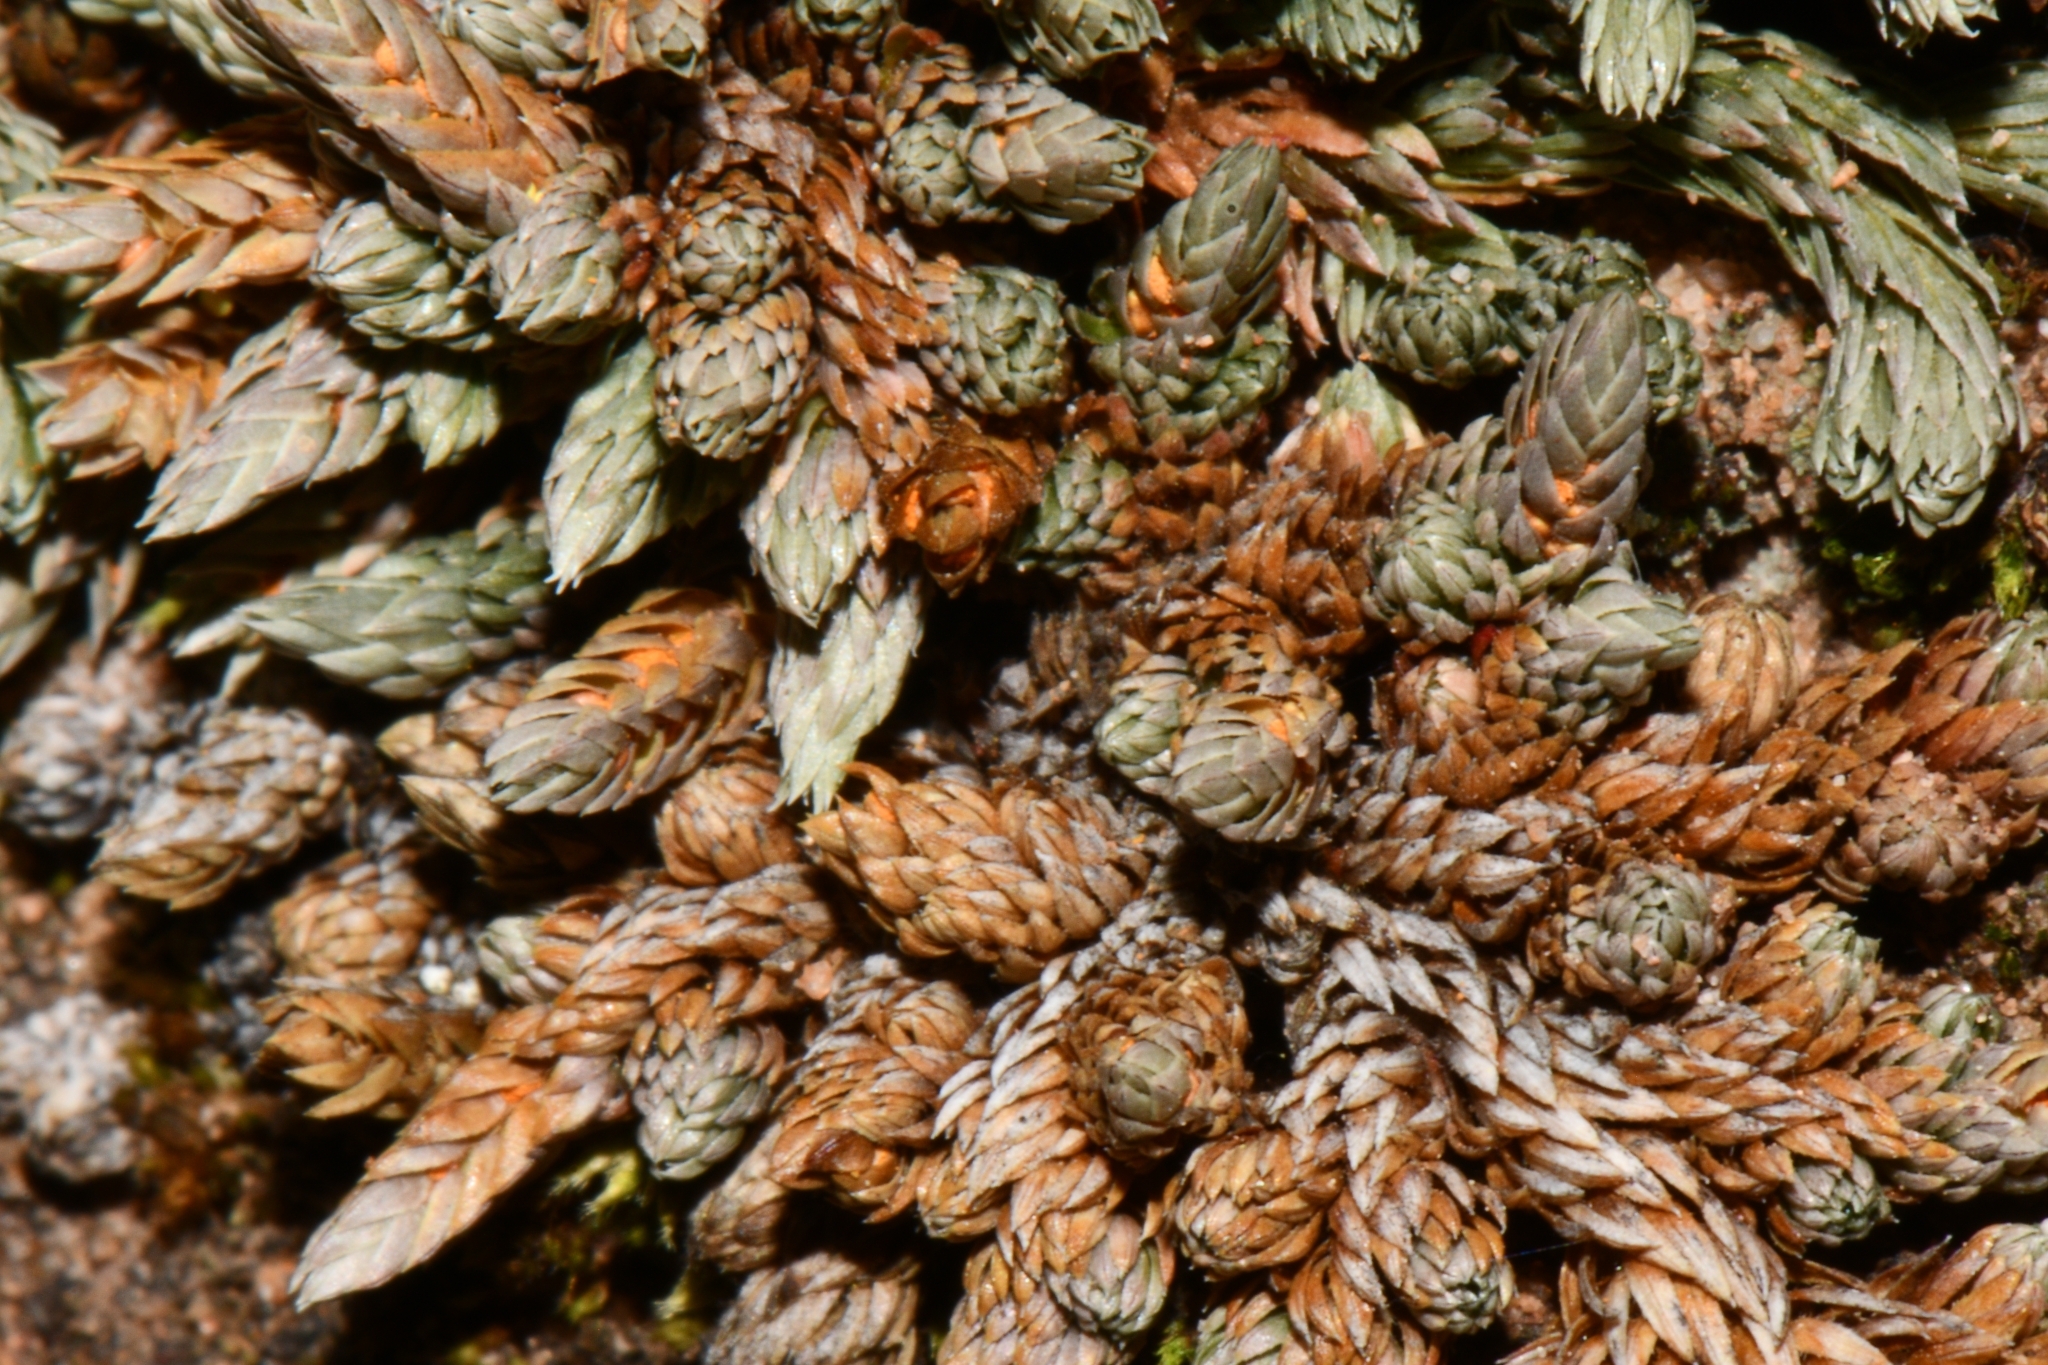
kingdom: Plantae
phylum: Tracheophyta
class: Lycopodiopsida
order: Selaginellales
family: Selaginellaceae
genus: Selaginella
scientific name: Selaginella utahensis
